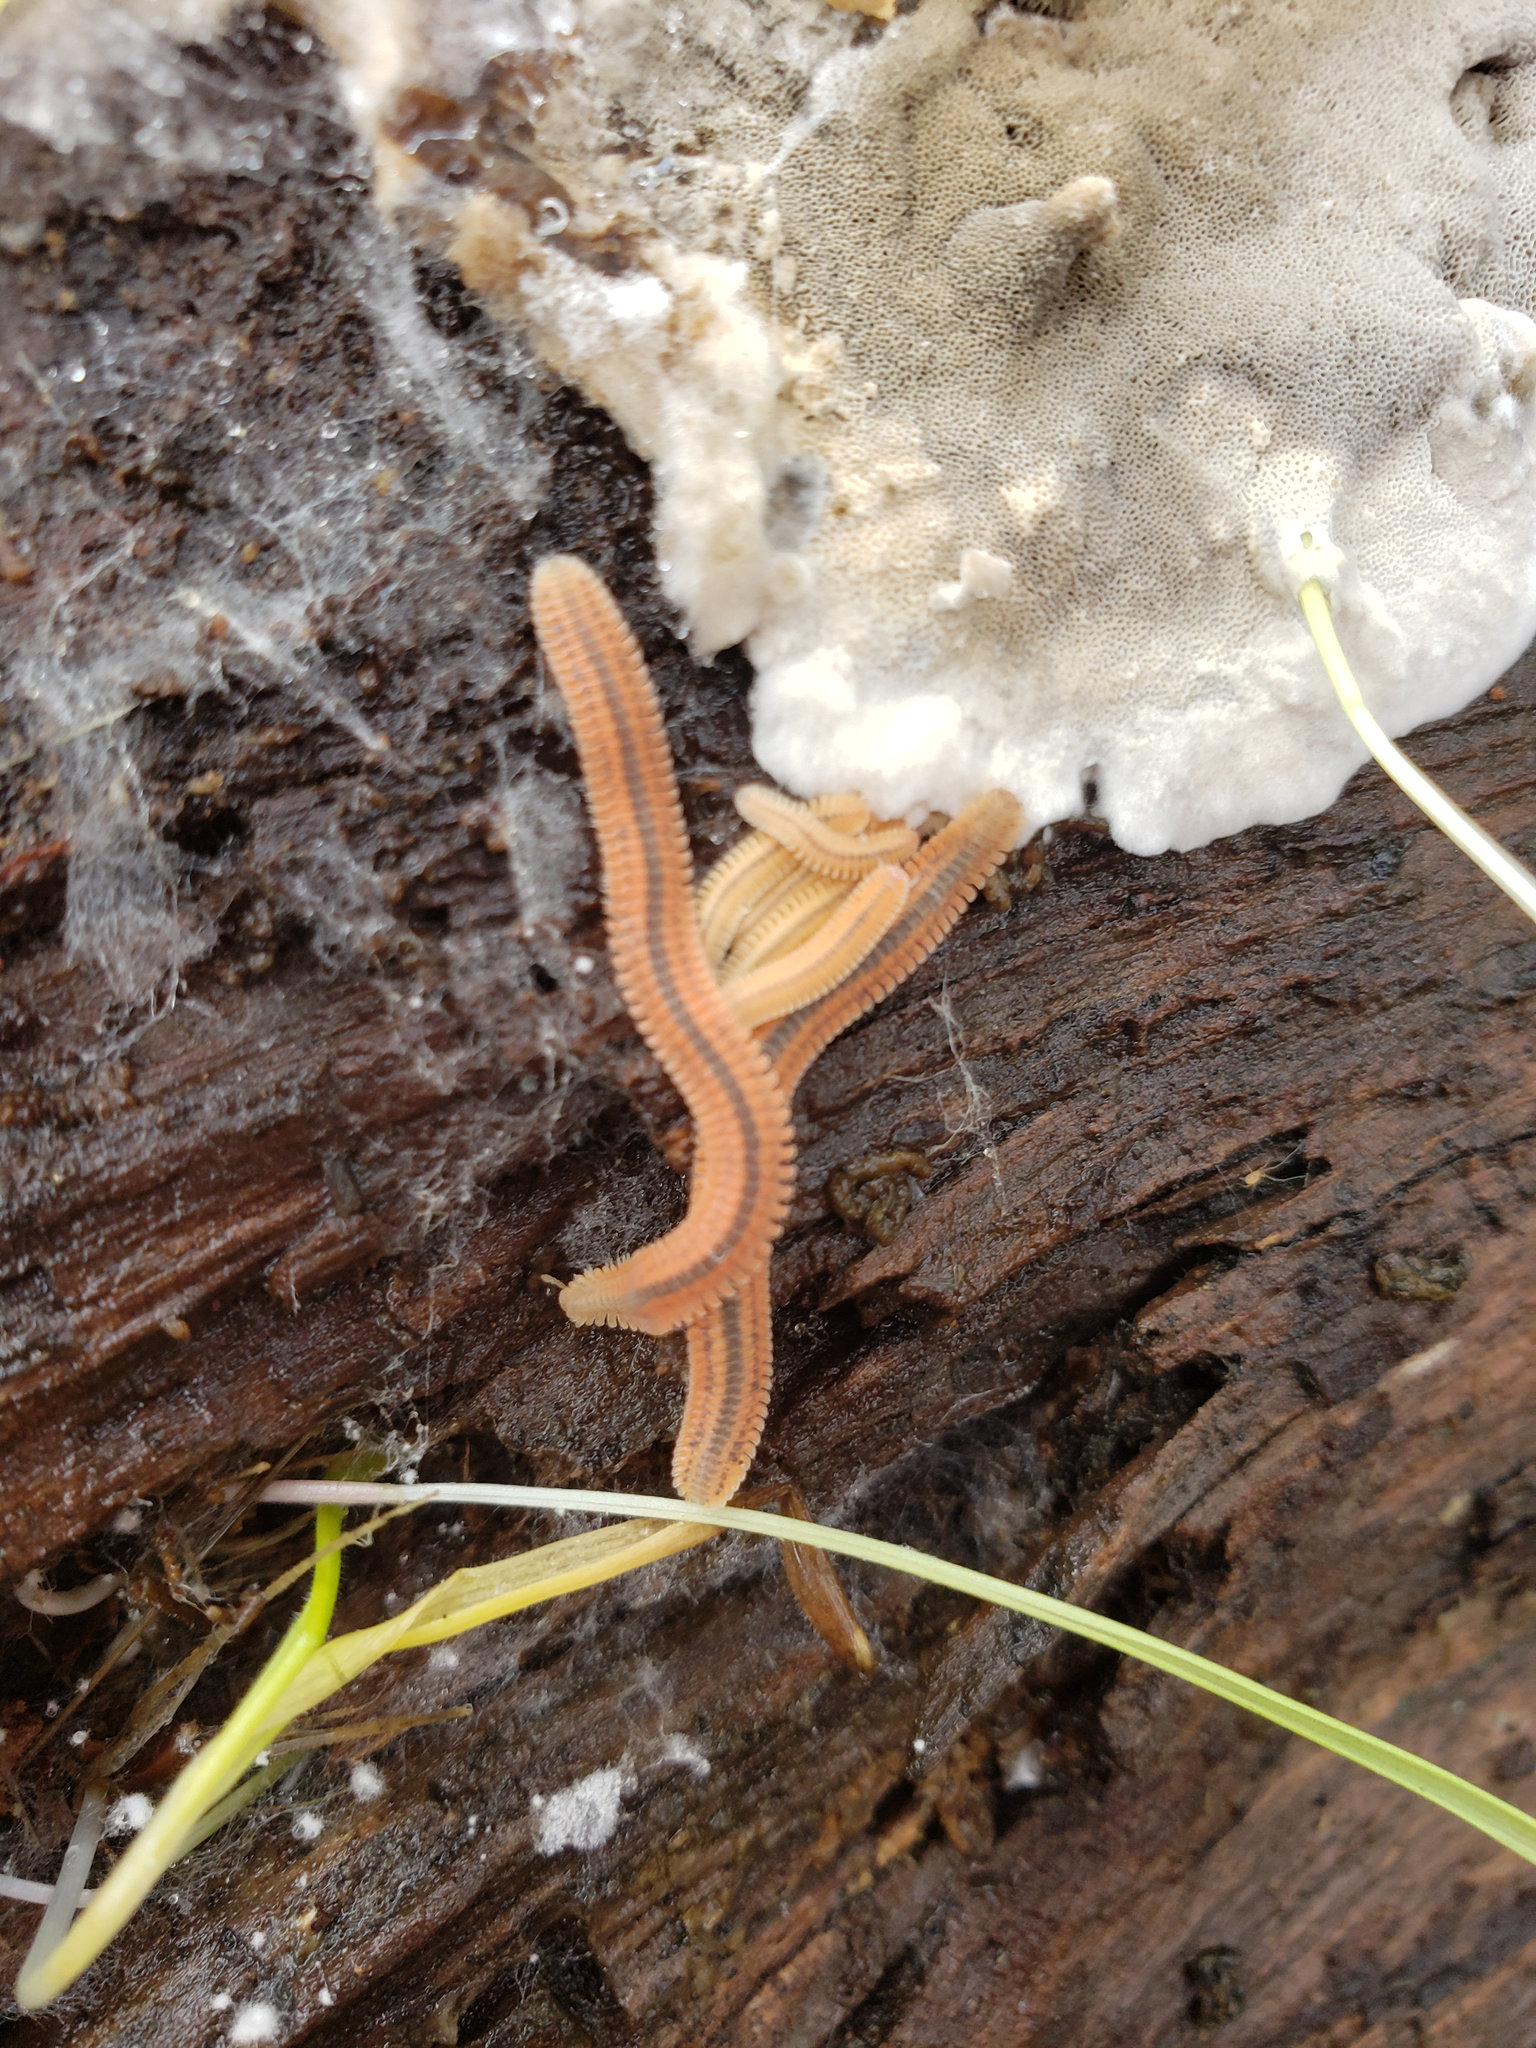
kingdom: Animalia
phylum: Arthropoda
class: Diplopoda
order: Platydesmida
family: Andrognathidae
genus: Brachycybe
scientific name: Brachycybe rosea
